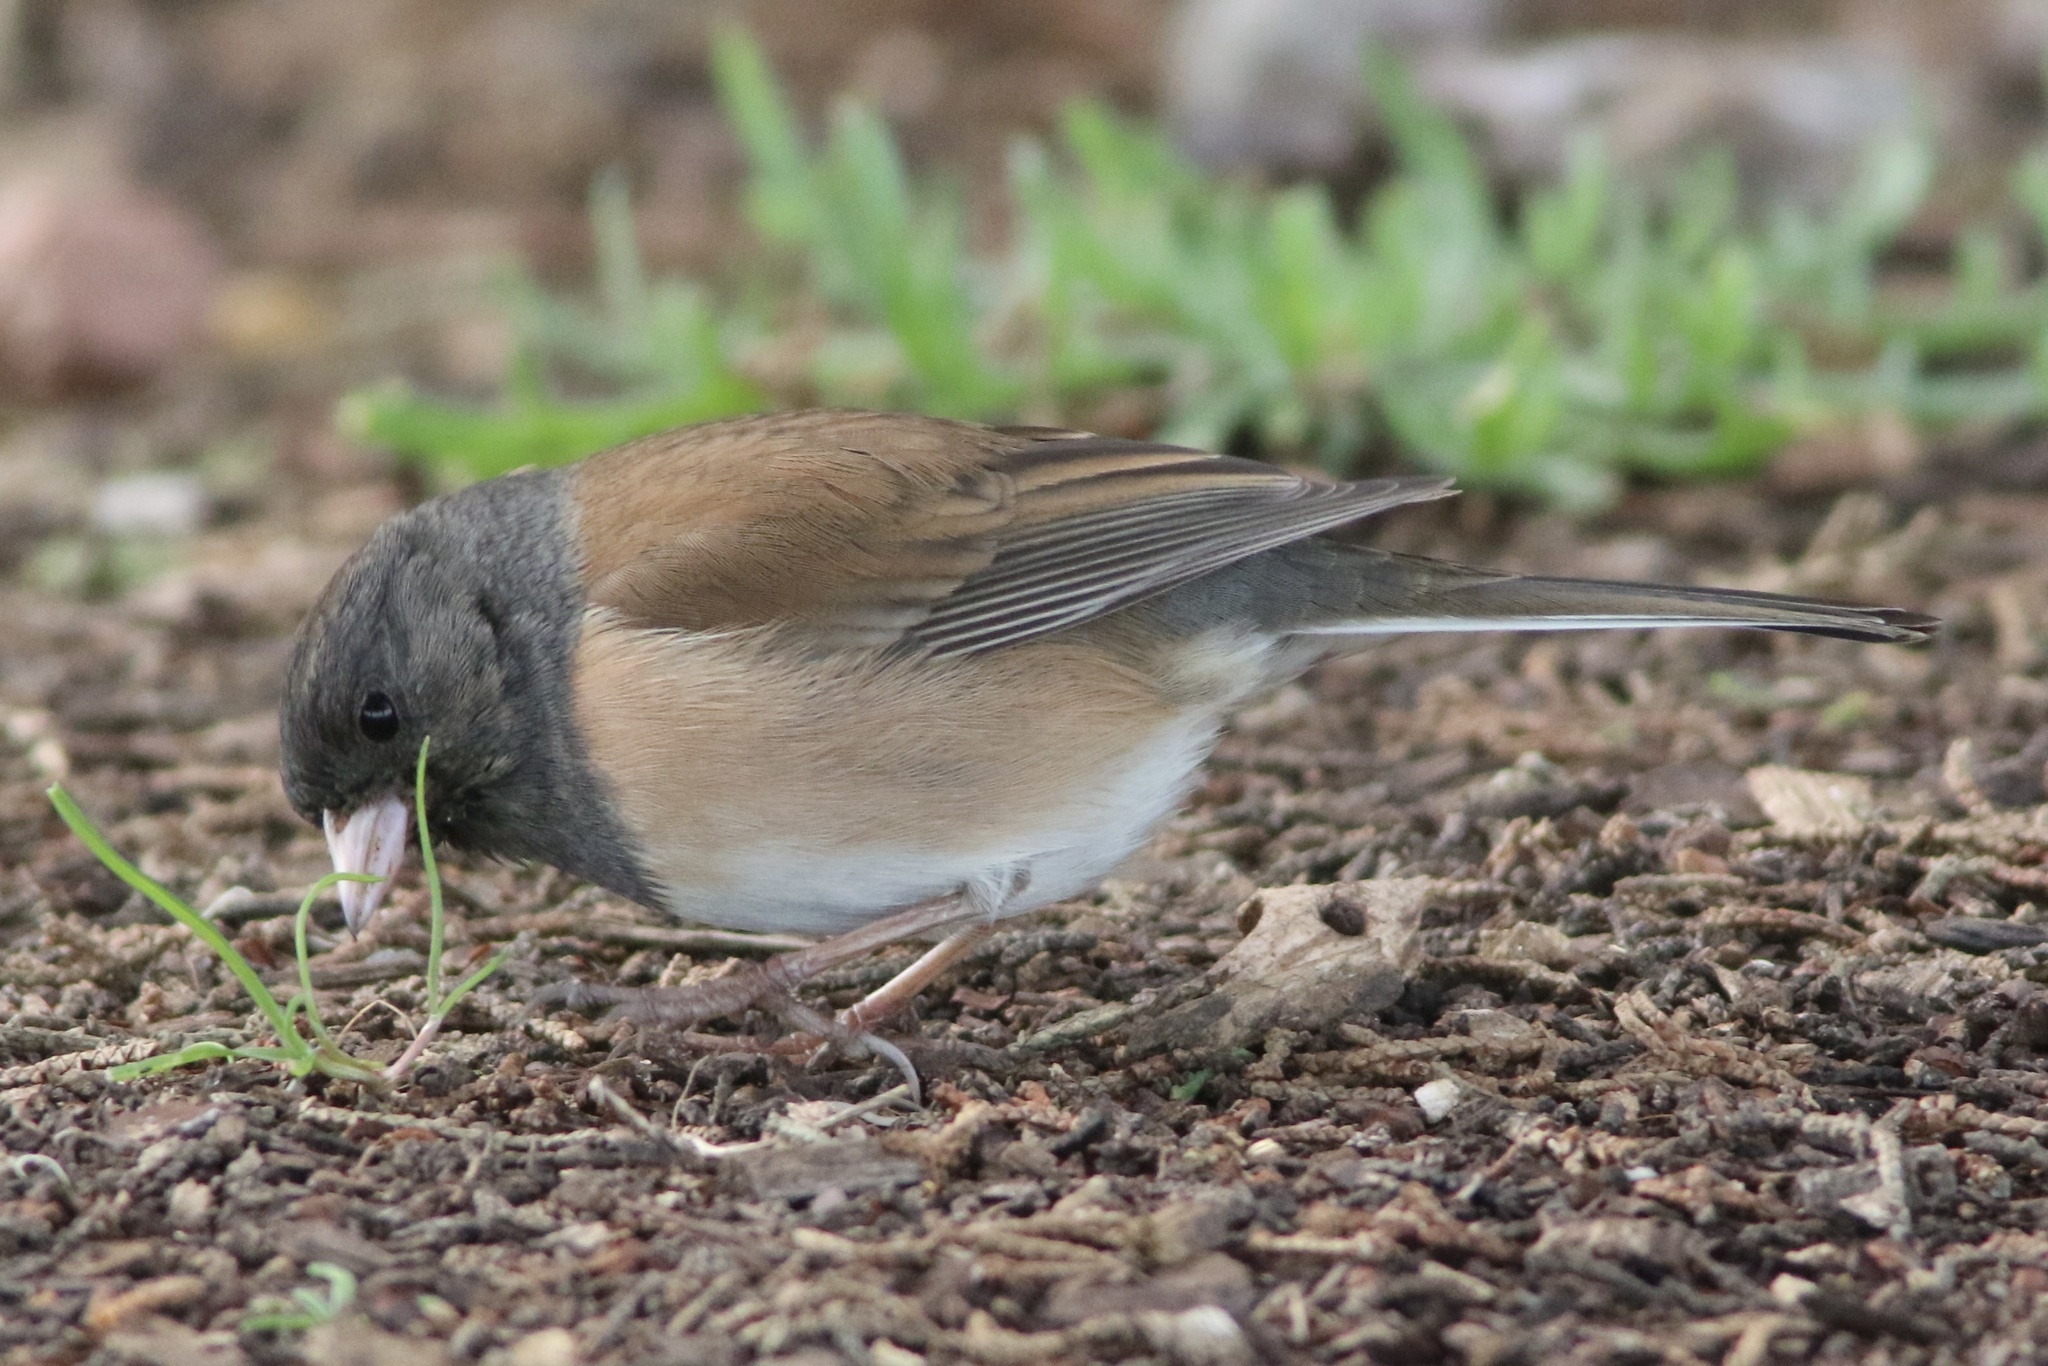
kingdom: Animalia
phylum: Chordata
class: Aves
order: Passeriformes
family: Passerellidae
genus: Junco
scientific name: Junco hyemalis
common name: Dark-eyed junco
